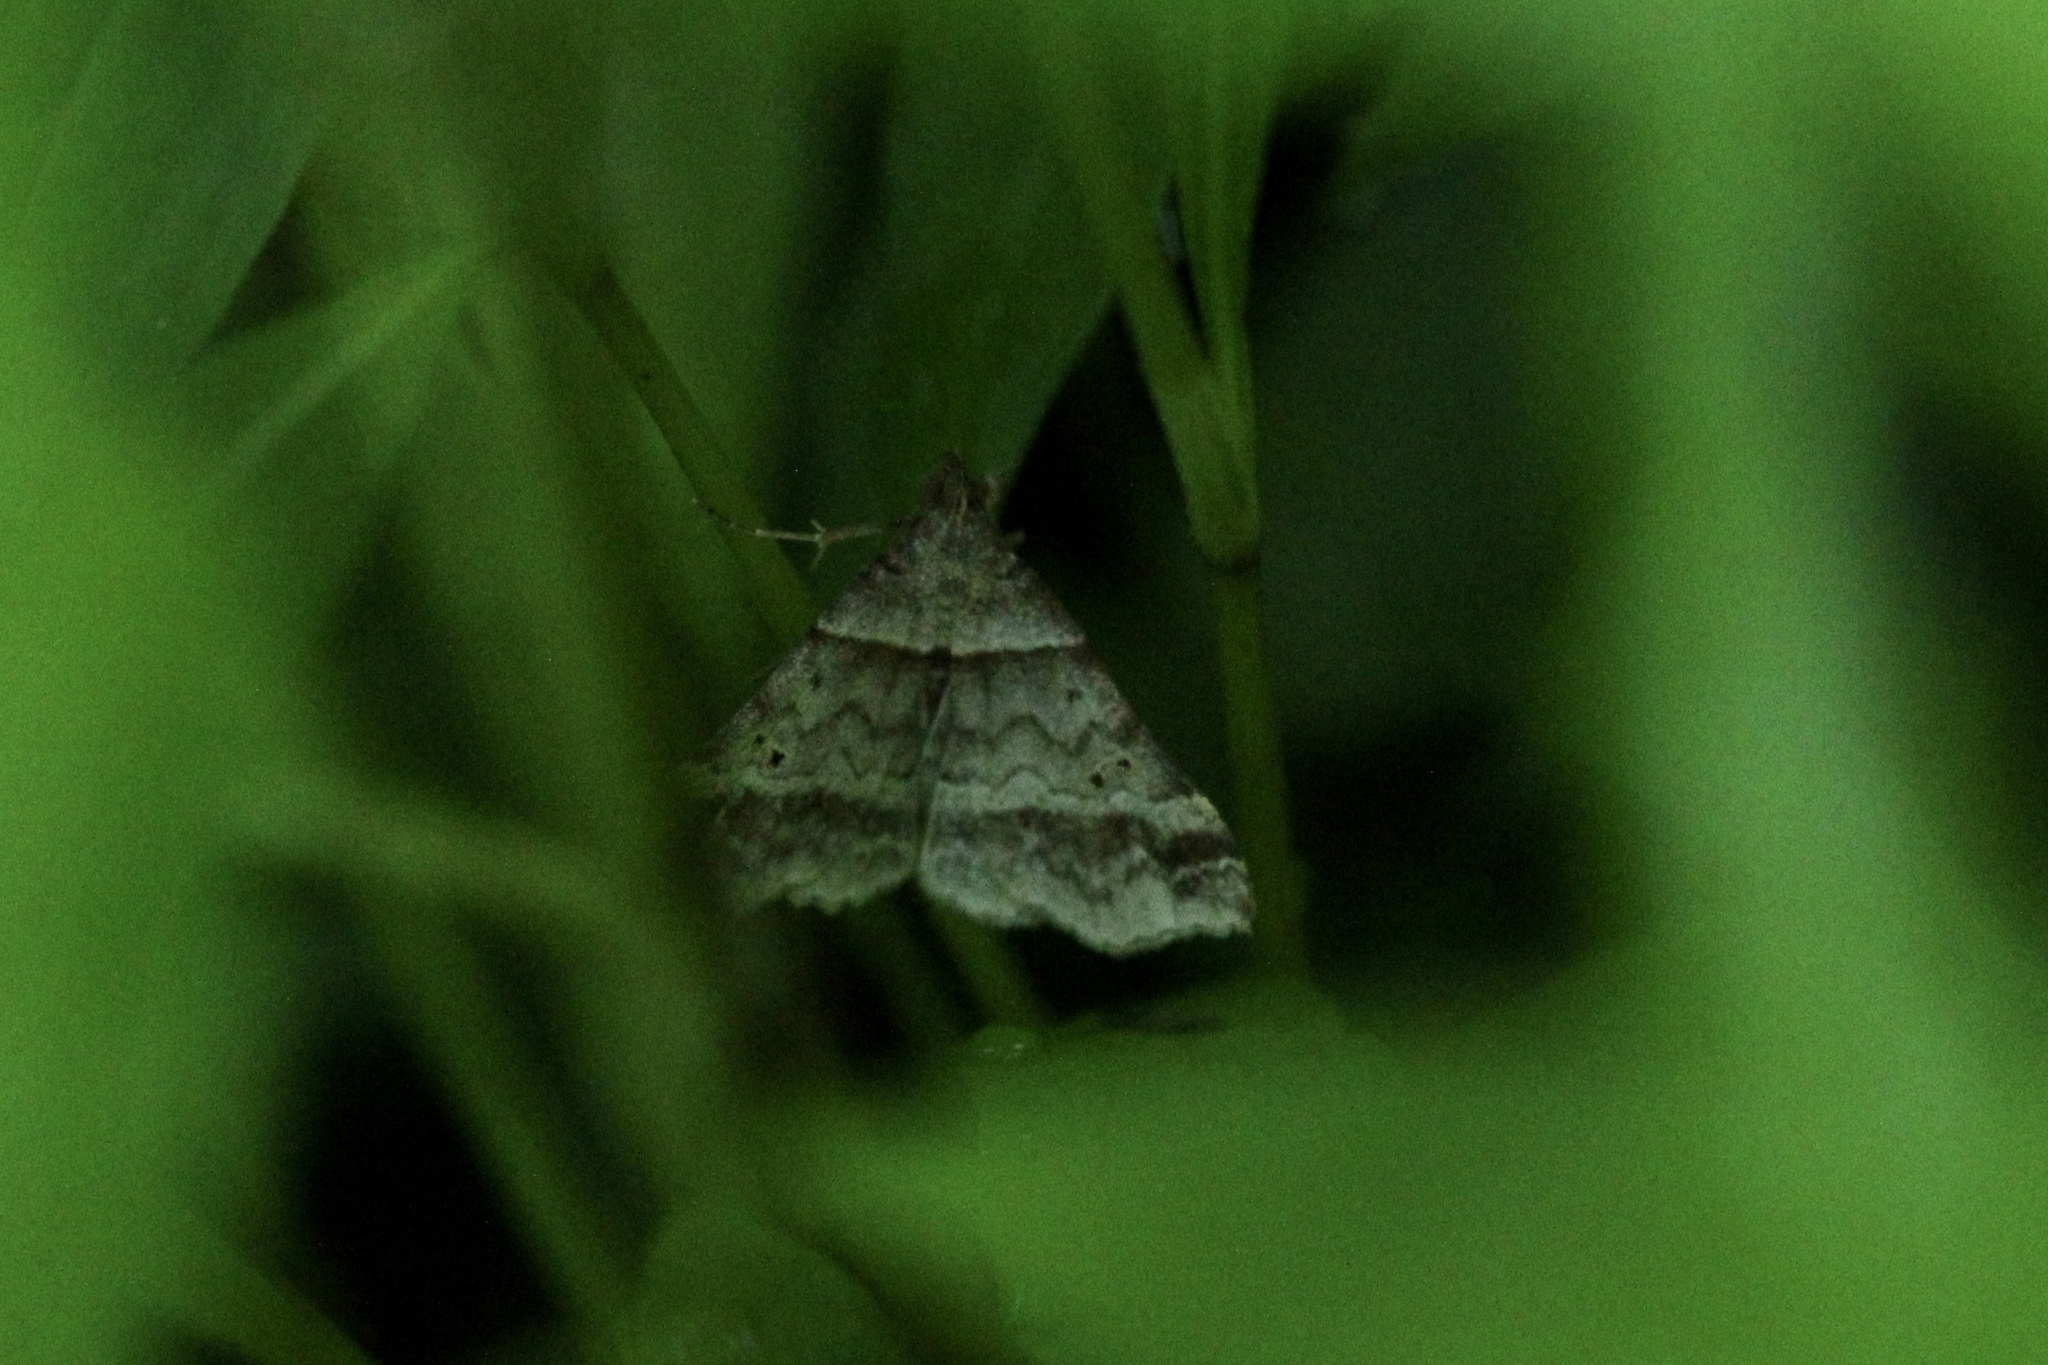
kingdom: Animalia
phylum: Arthropoda
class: Insecta
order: Lepidoptera
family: Erebidae
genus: Phaeolita
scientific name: Phaeolita pyramusalis
